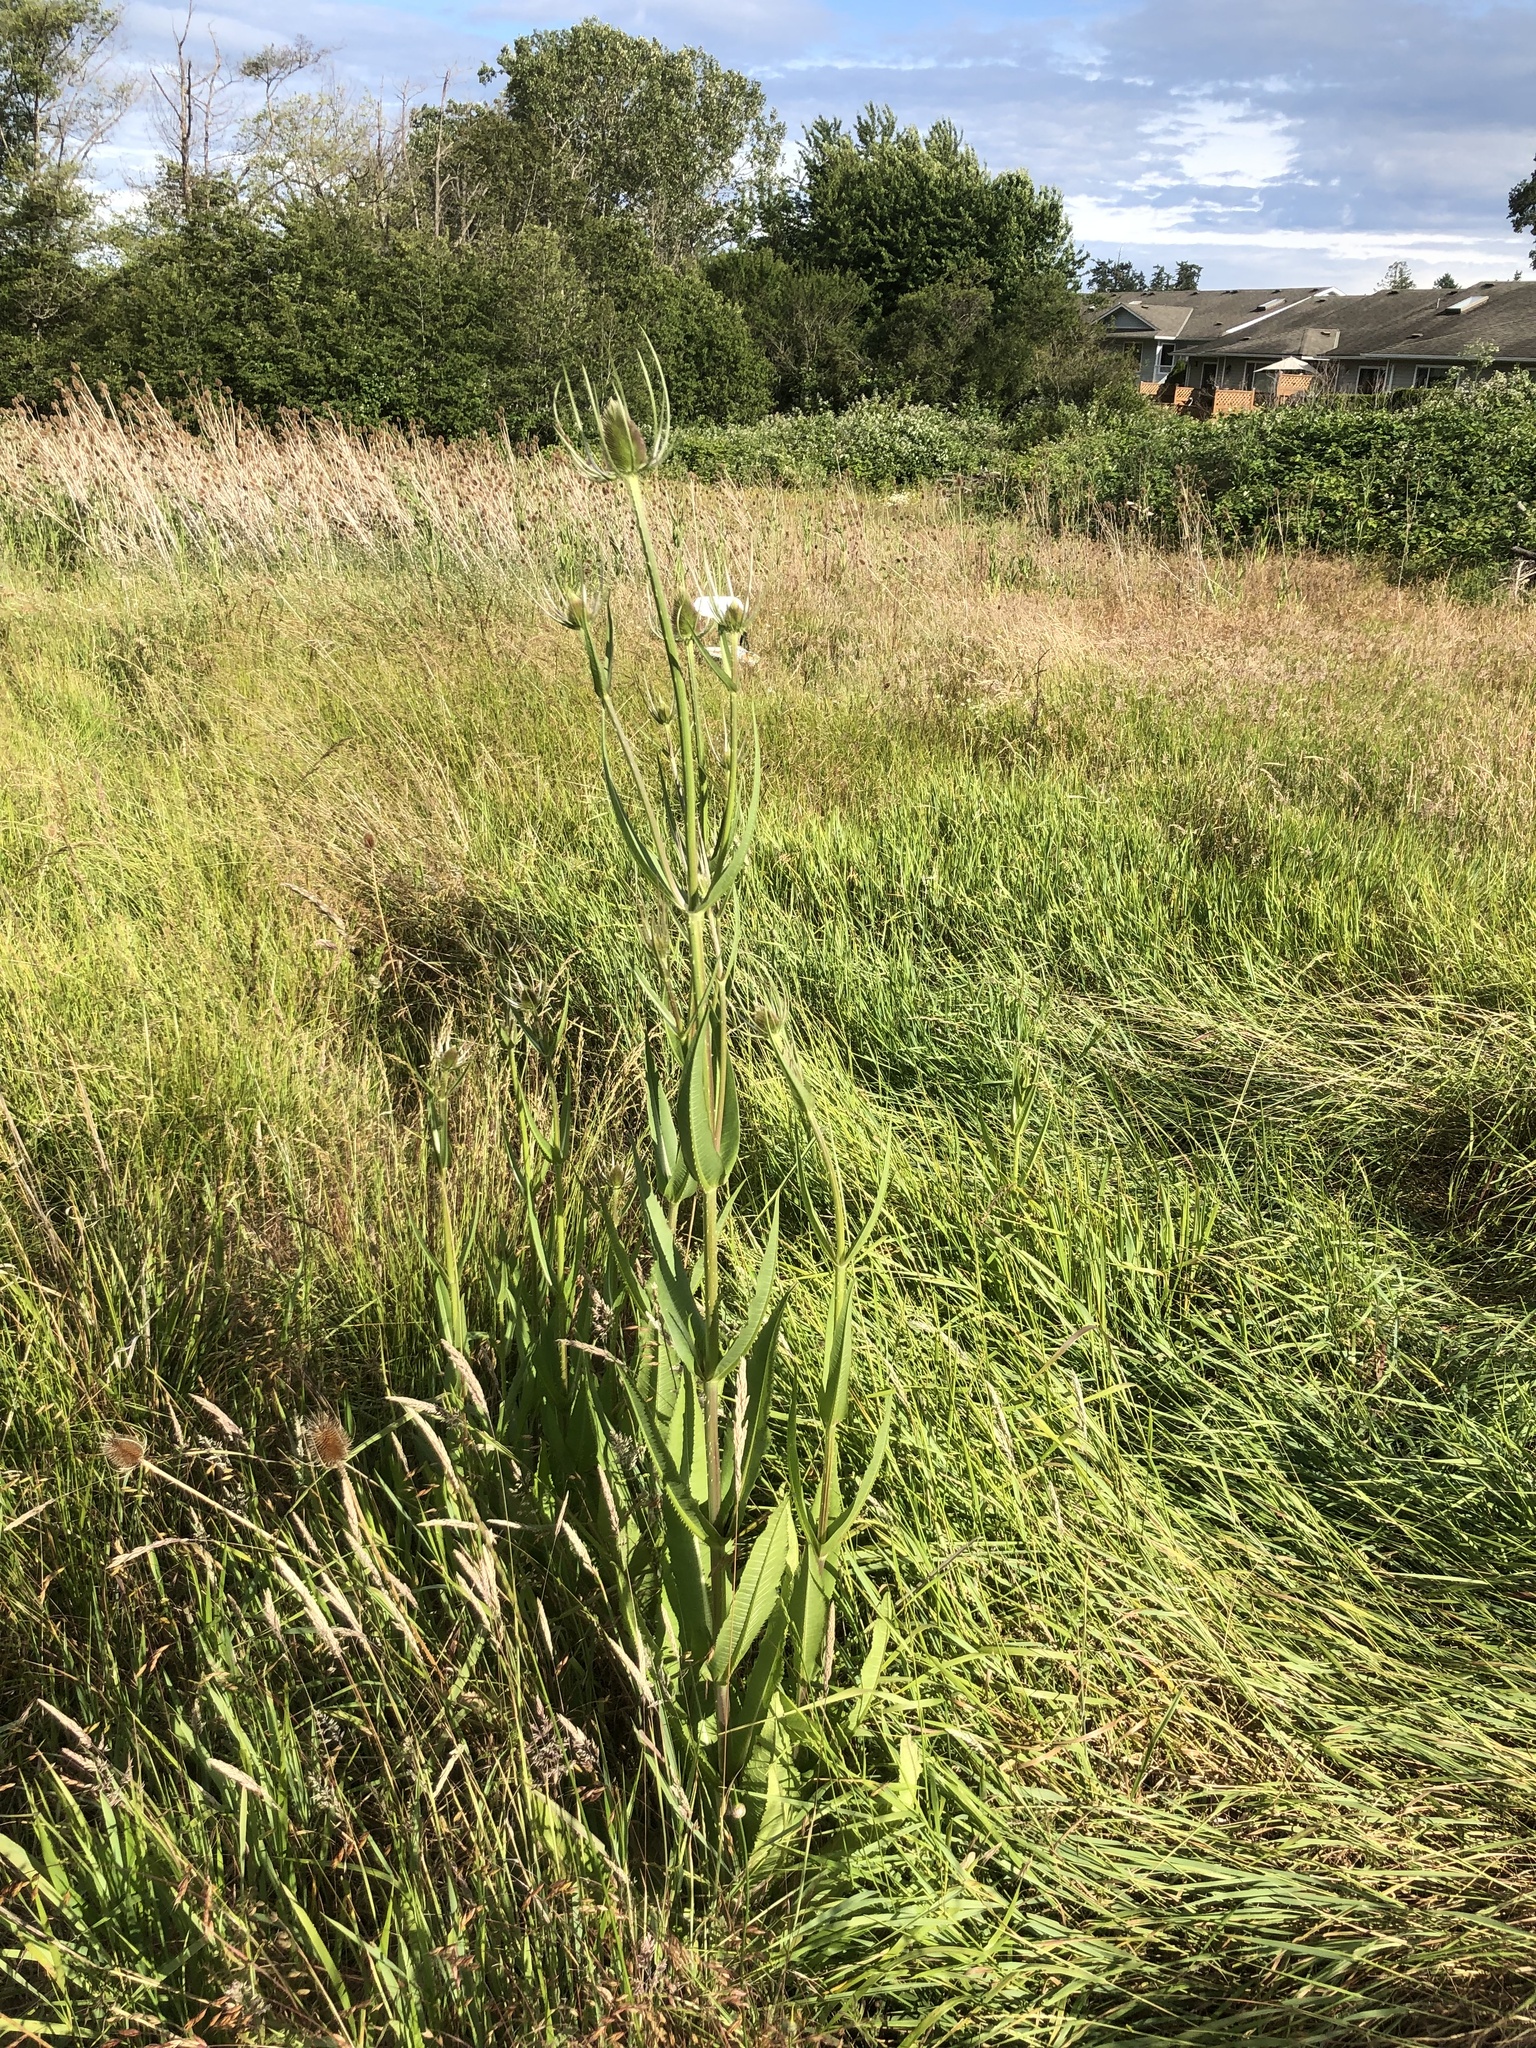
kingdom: Plantae
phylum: Tracheophyta
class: Magnoliopsida
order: Dipsacales
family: Caprifoliaceae
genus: Dipsacus
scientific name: Dipsacus fullonum
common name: Teasel
